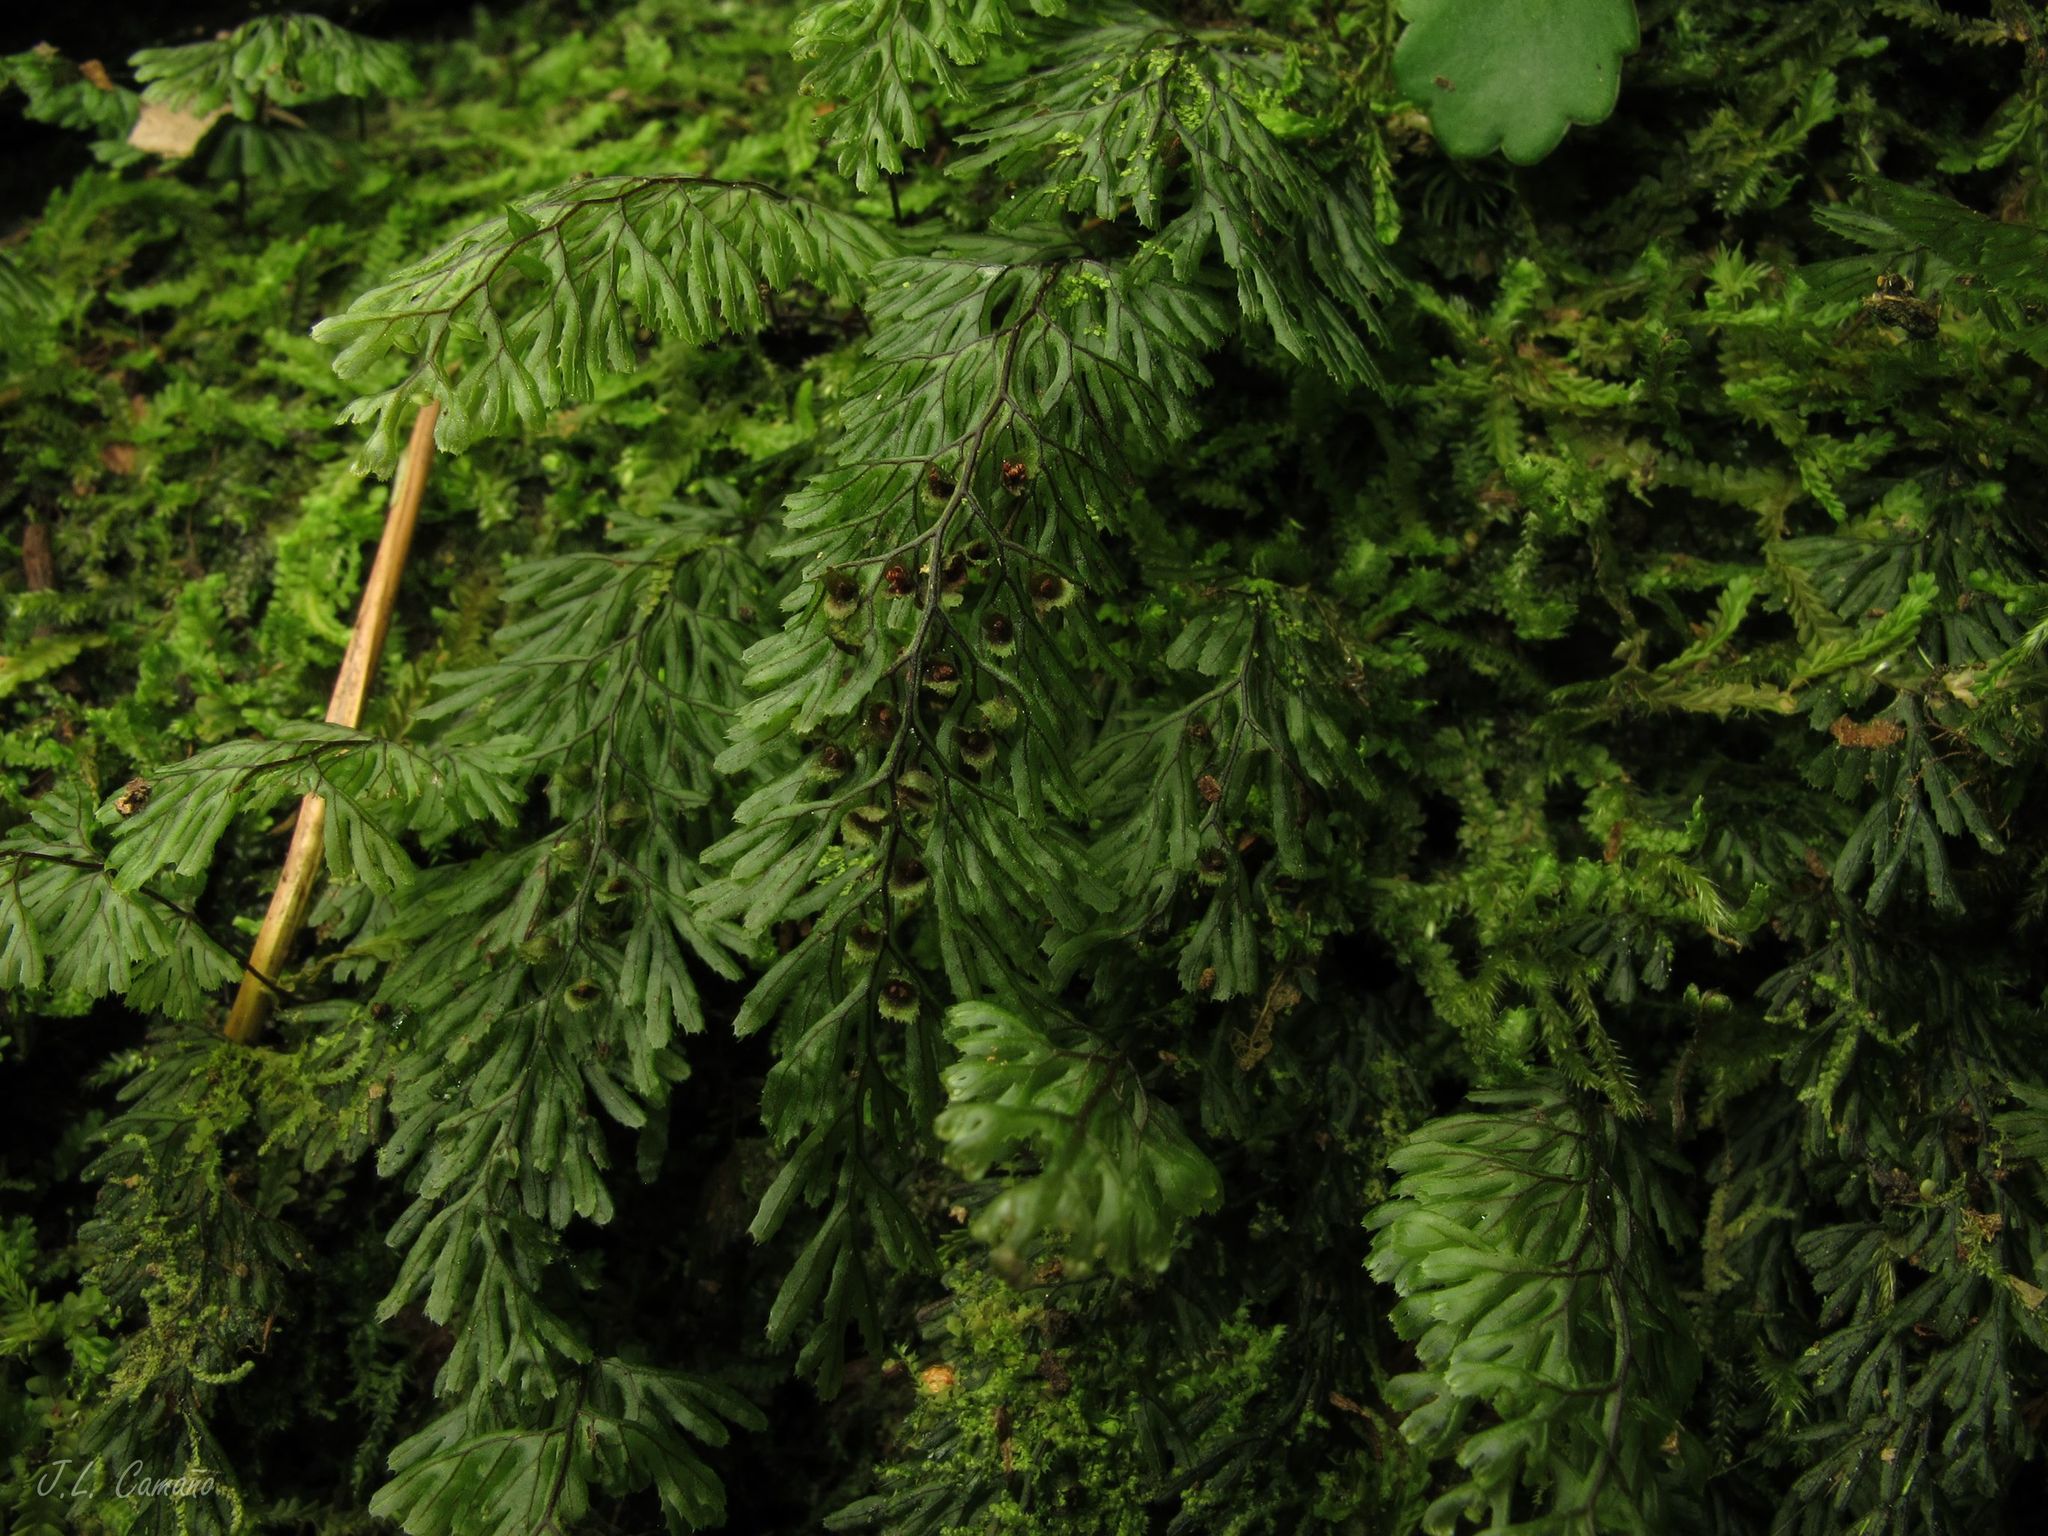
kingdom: Plantae
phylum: Tracheophyta
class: Polypodiopsida
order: Hymenophyllales
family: Hymenophyllaceae
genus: Hymenophyllum
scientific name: Hymenophyllum tunbrigense
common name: Tunbridge filmy fern
